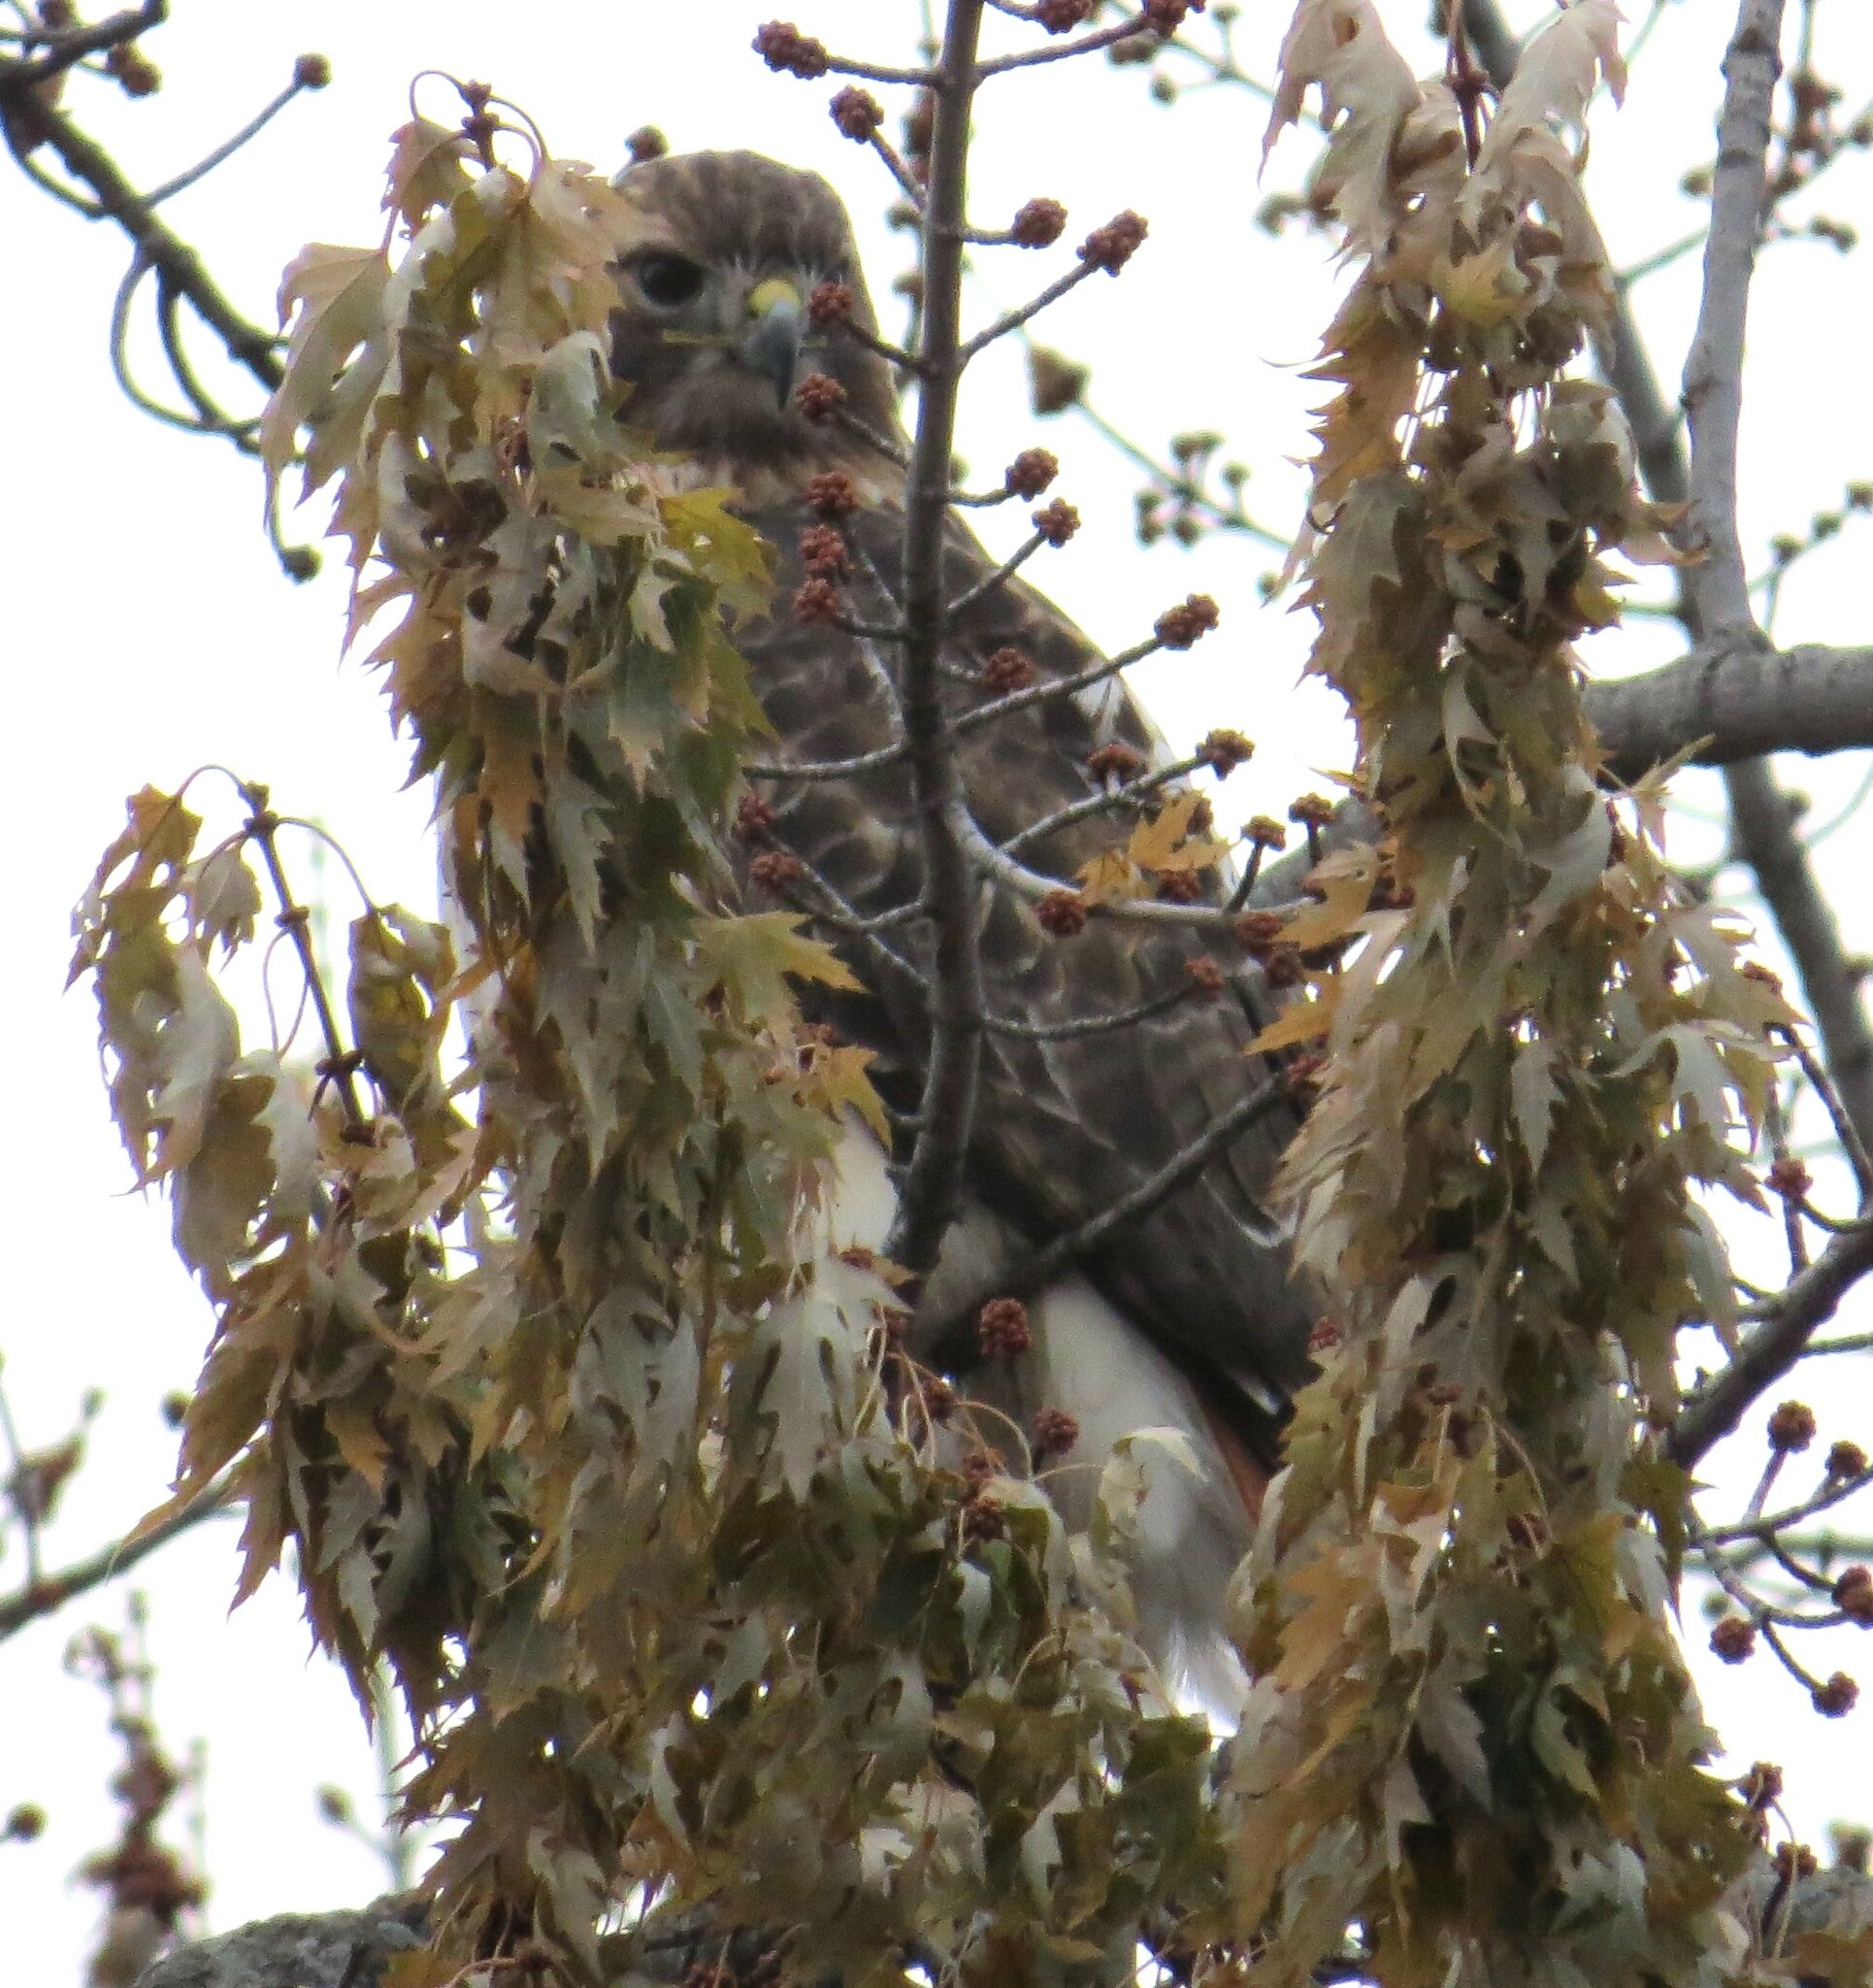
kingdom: Animalia
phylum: Chordata
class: Aves
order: Accipitriformes
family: Accipitridae
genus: Buteo
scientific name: Buteo jamaicensis
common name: Red-tailed hawk
